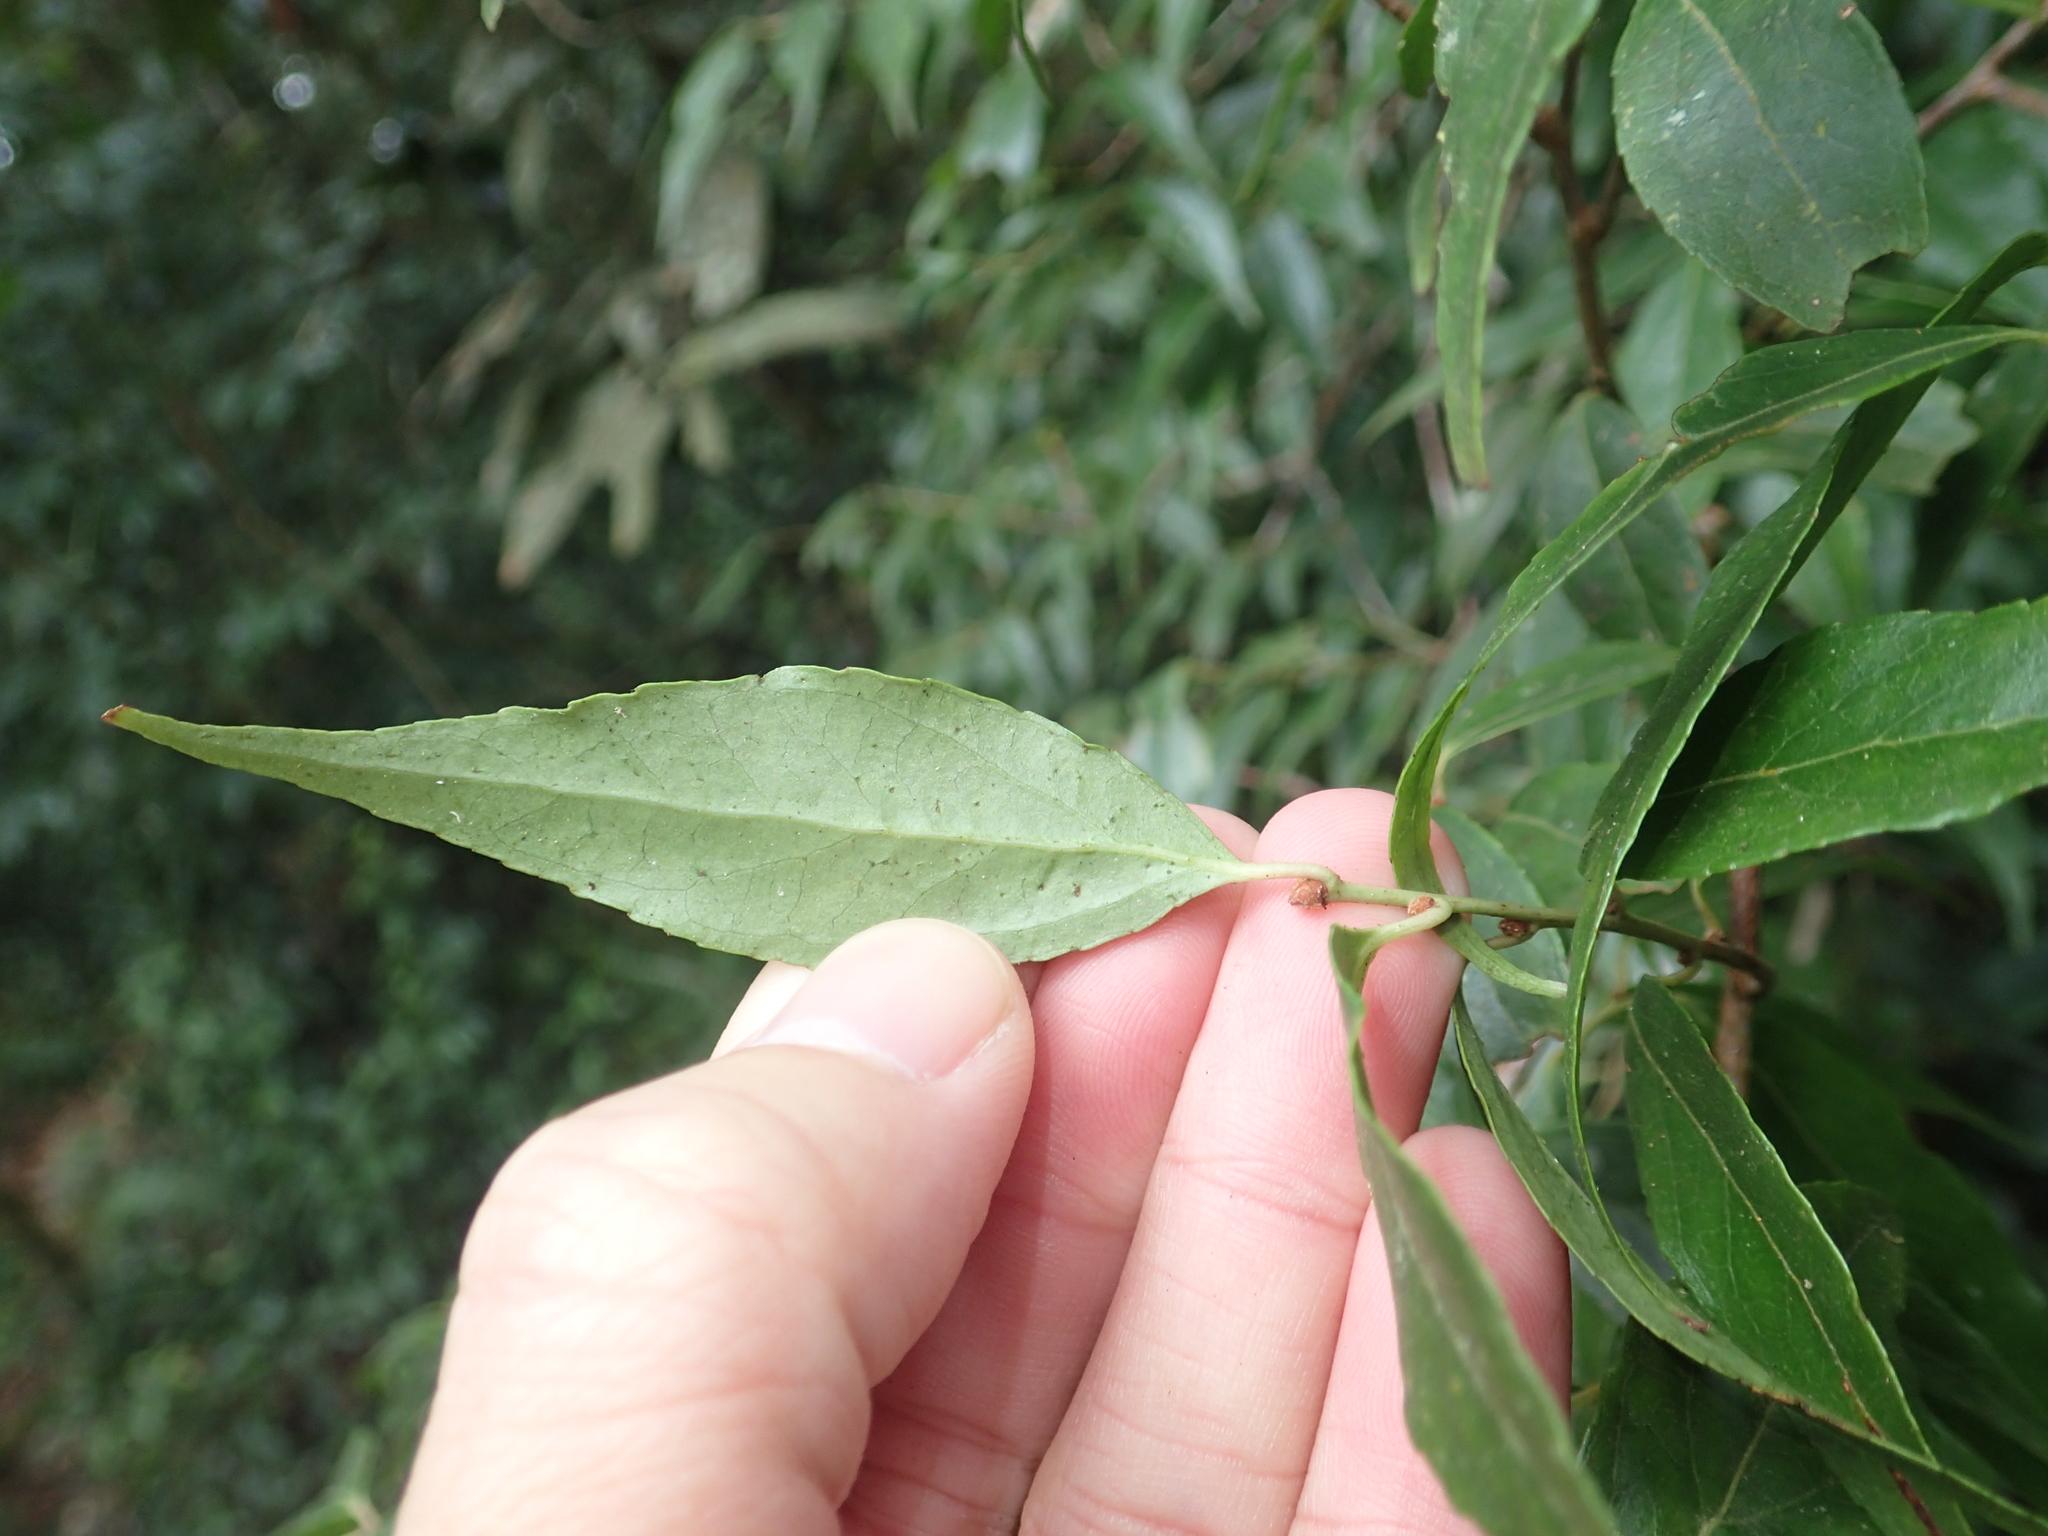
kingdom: Plantae
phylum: Tracheophyta
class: Magnoliopsida
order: Ericales
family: Ericaceae
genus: Vaccinium
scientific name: Vaccinium kengii
